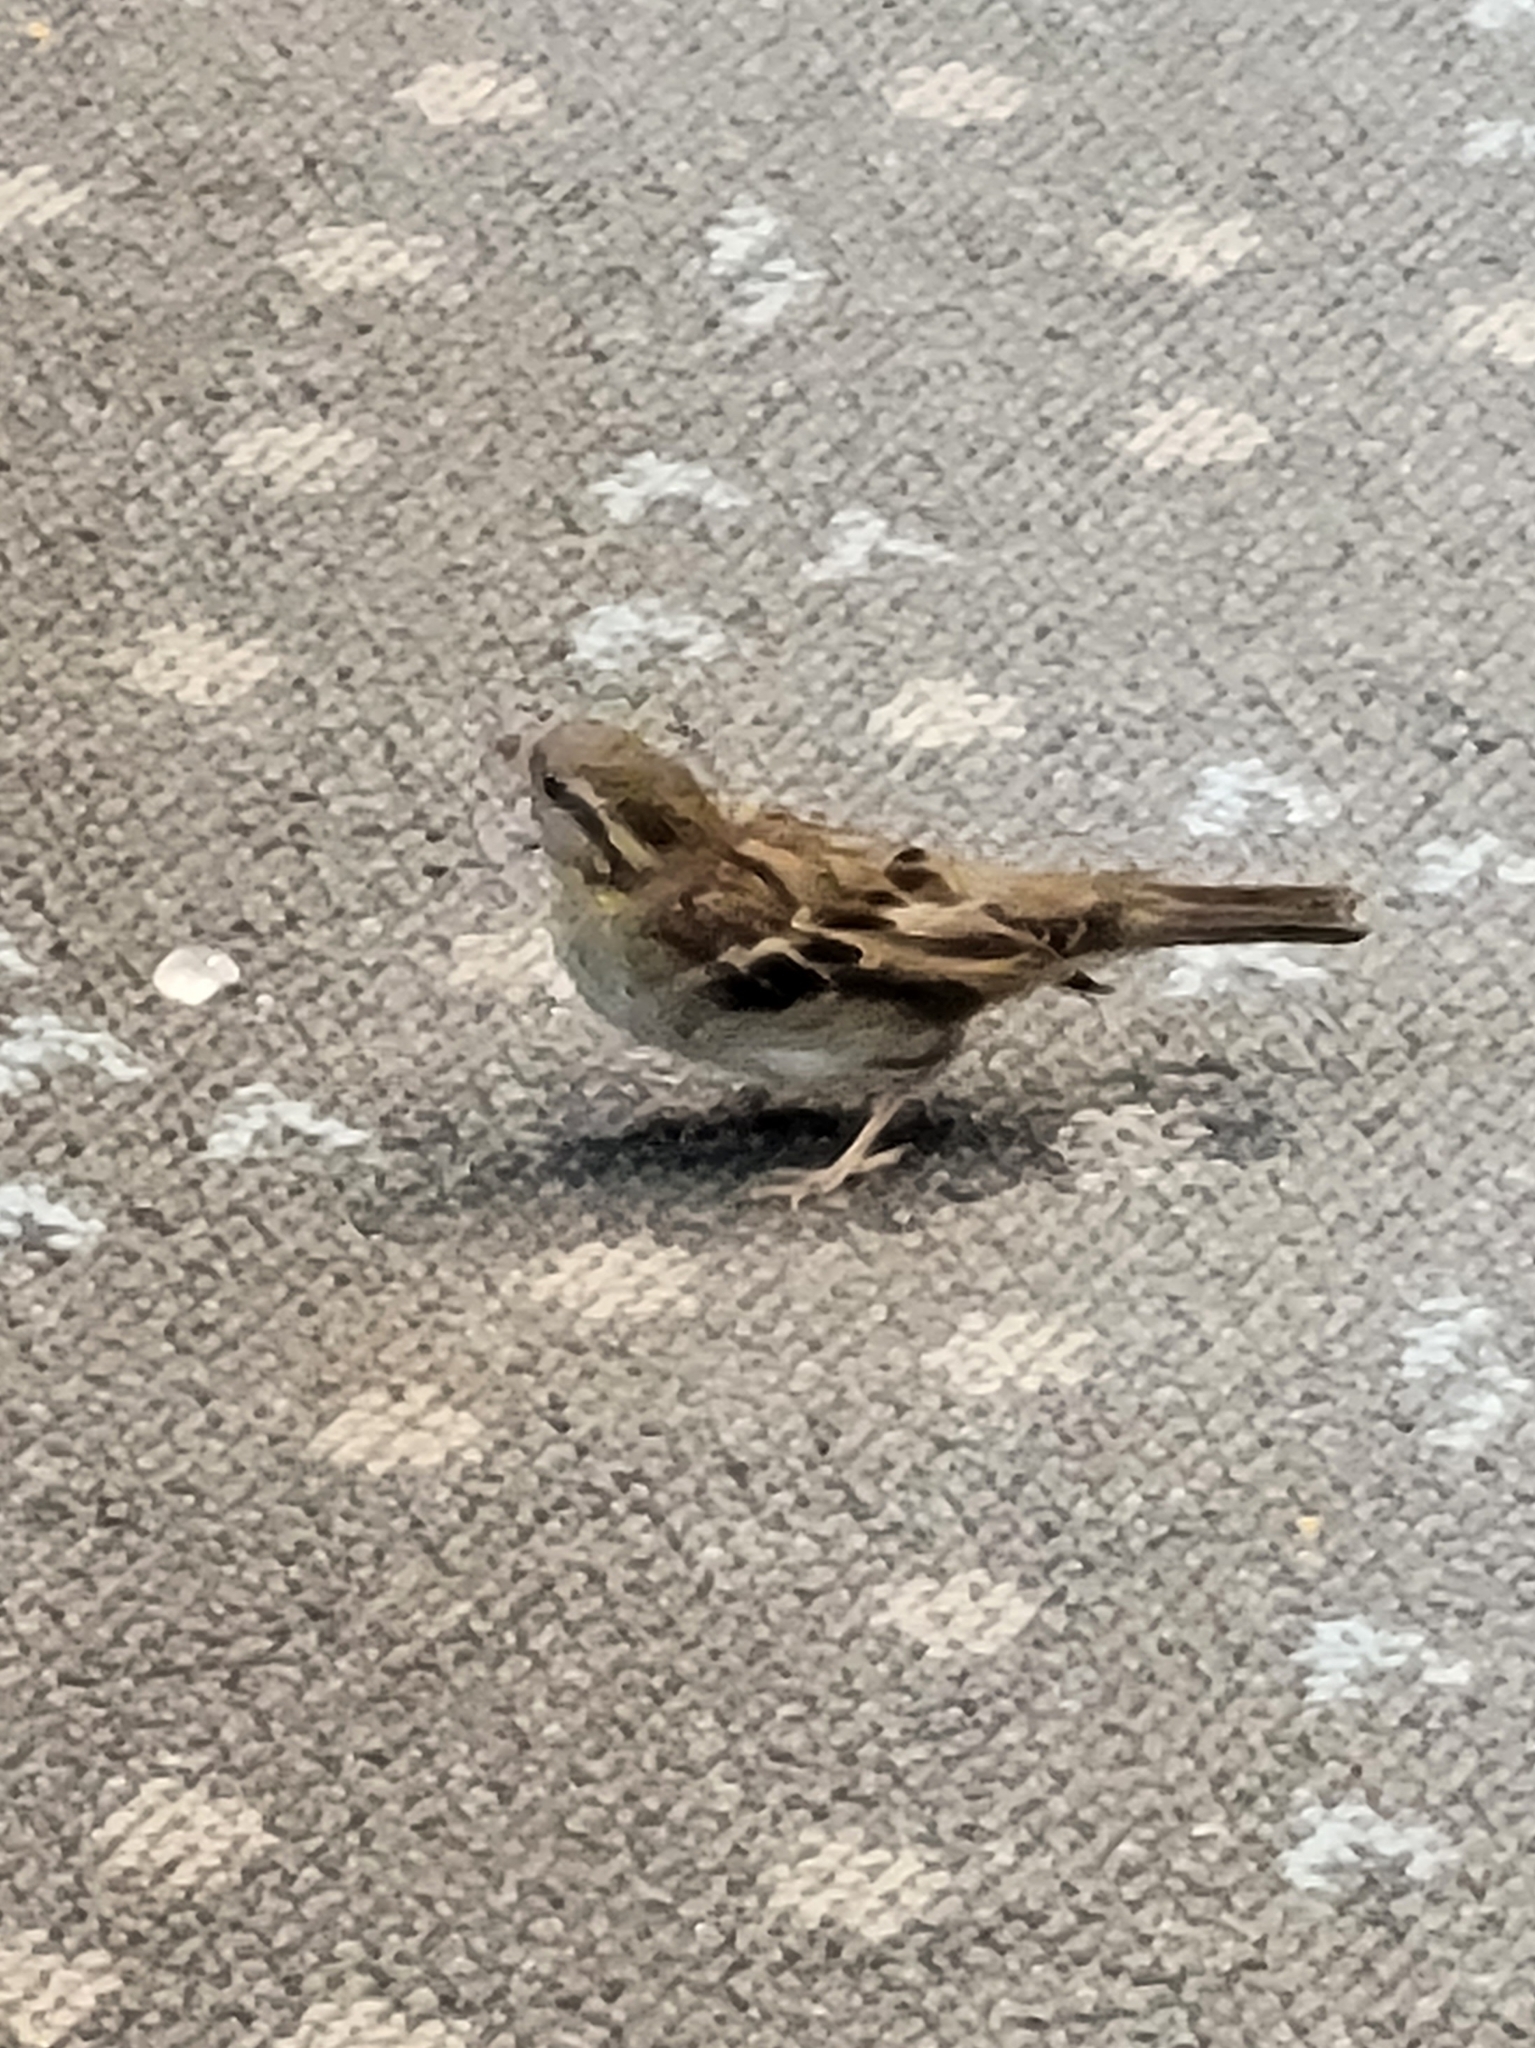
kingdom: Animalia
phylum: Chordata
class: Aves
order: Passeriformes
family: Passeridae
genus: Passer
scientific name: Passer domesticus
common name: House sparrow
